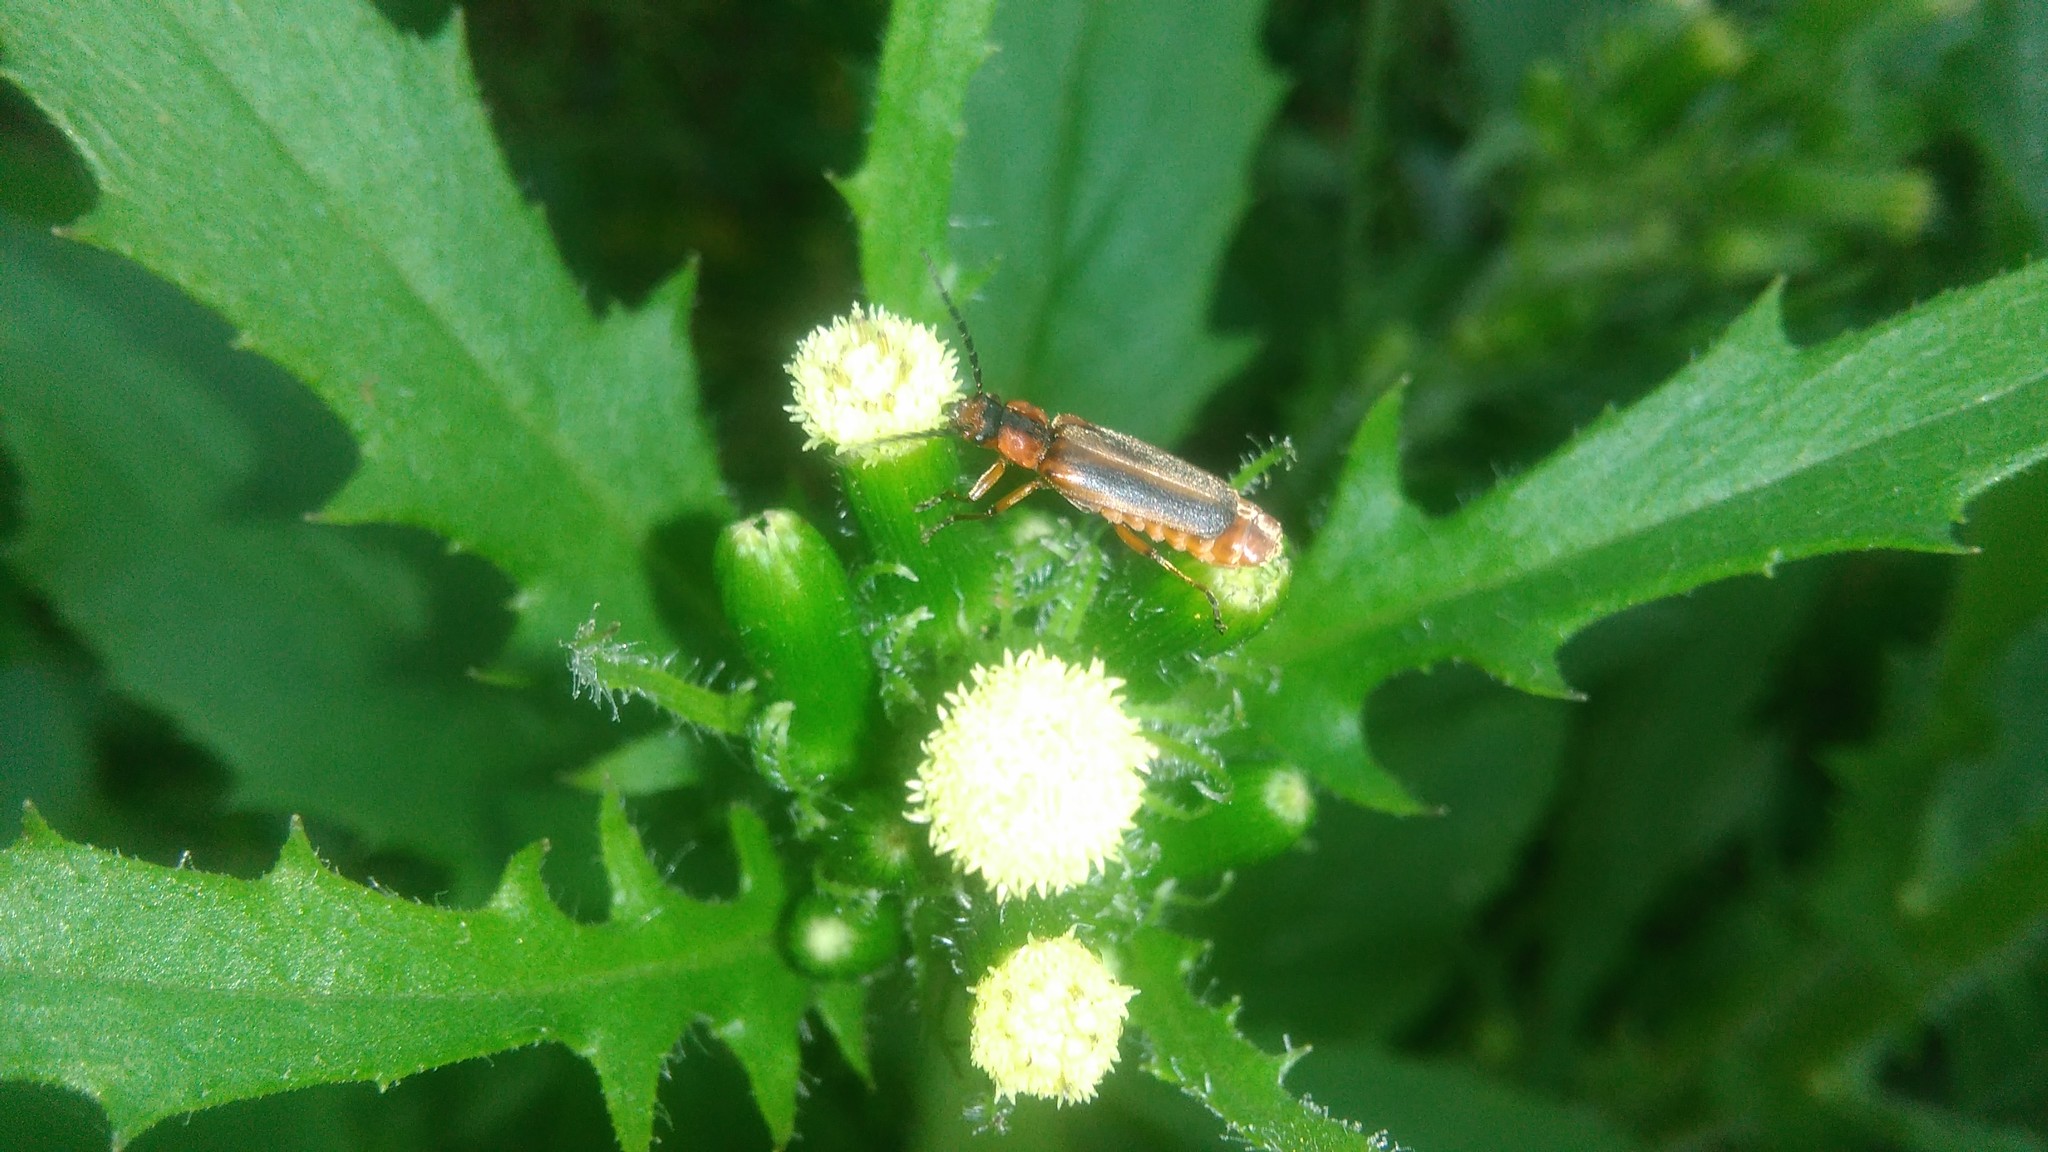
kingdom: Animalia
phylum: Arthropoda
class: Insecta
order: Coleoptera
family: Cantharidae
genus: Discodon
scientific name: Discodon
